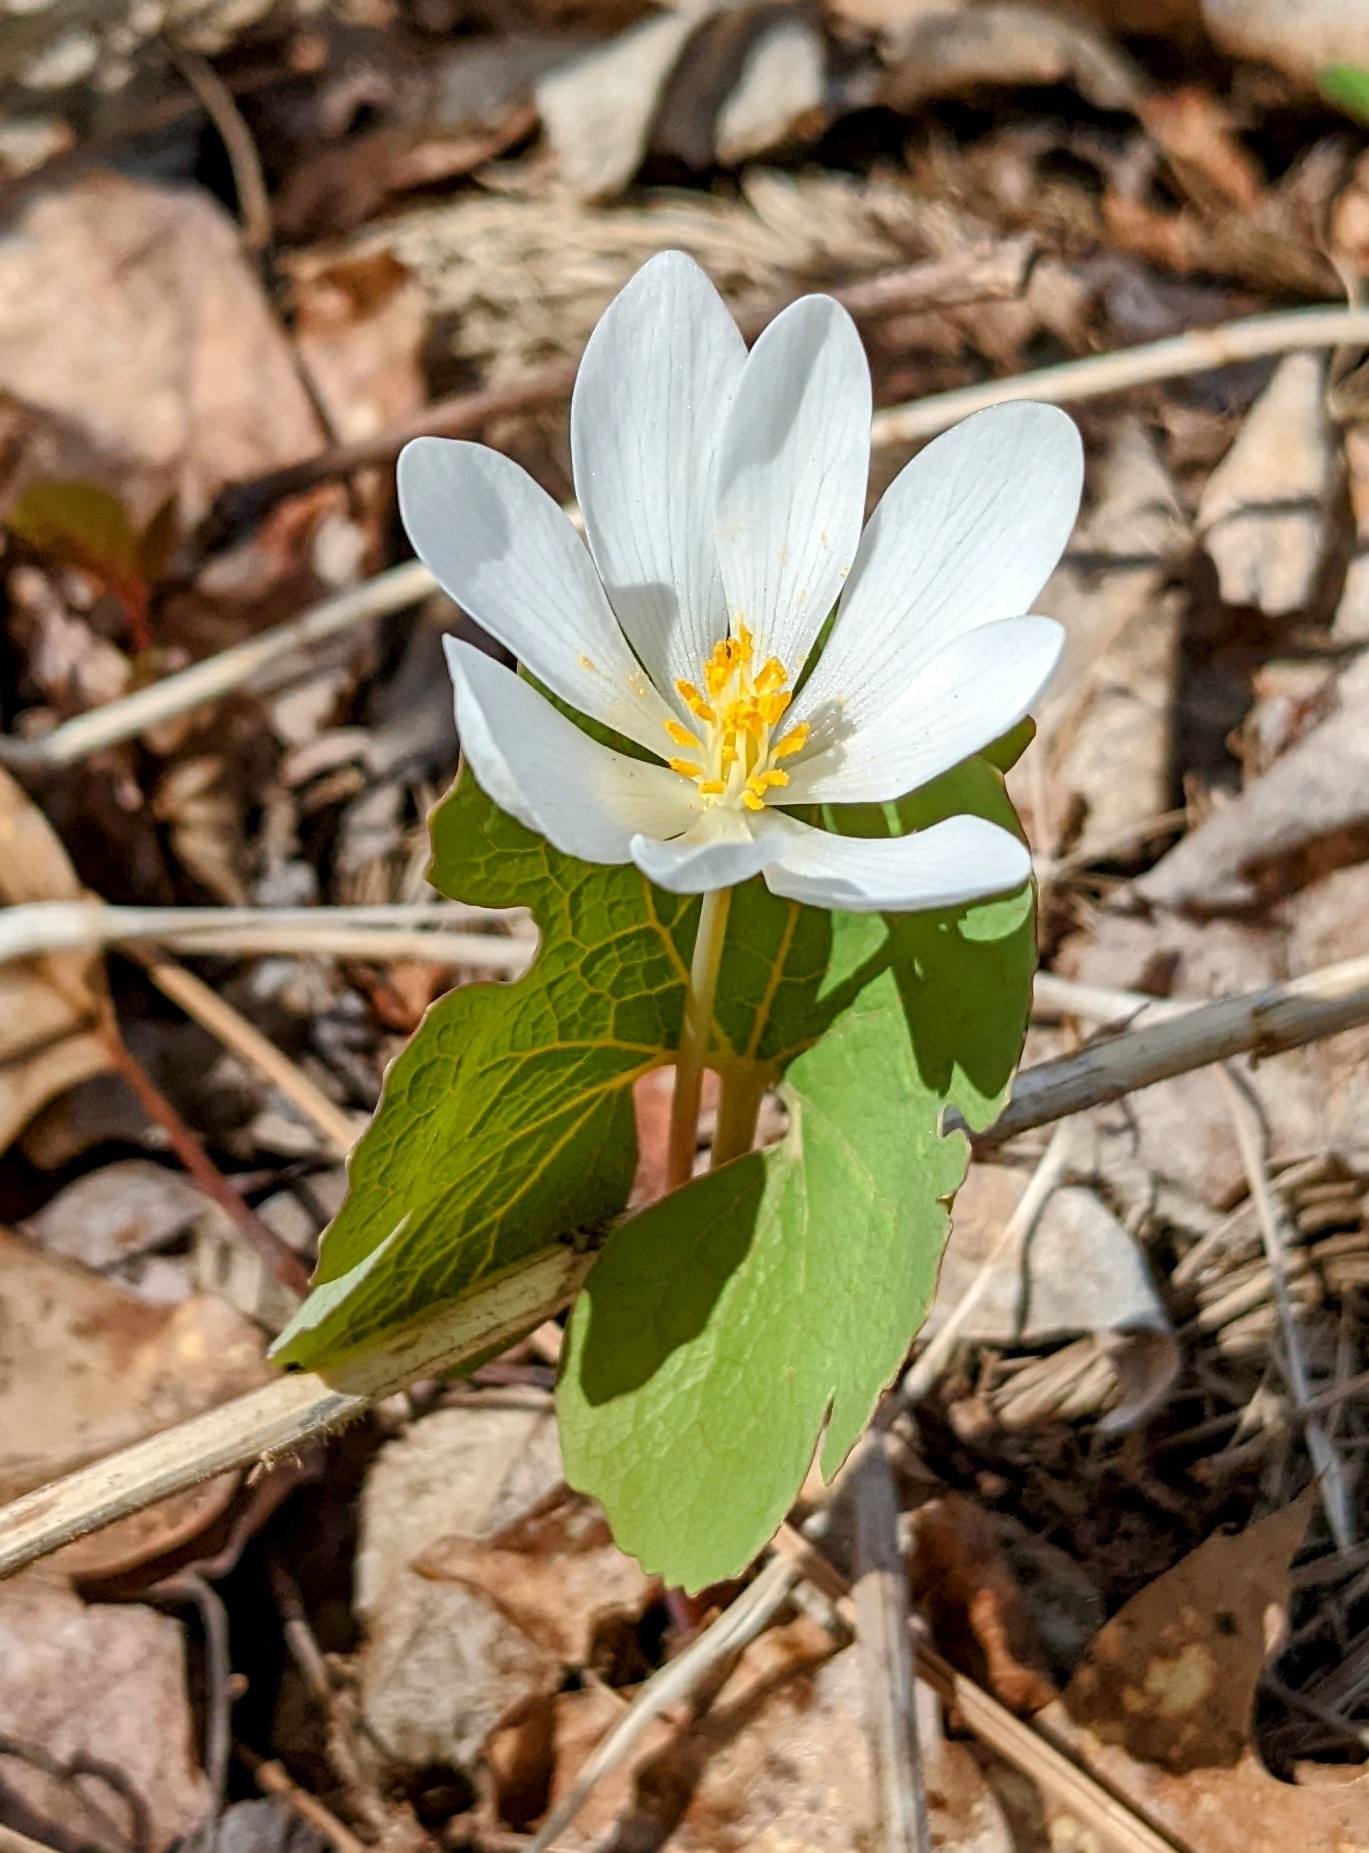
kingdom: Plantae
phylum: Tracheophyta
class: Magnoliopsida
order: Ranunculales
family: Papaveraceae
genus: Sanguinaria
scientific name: Sanguinaria canadensis
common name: Bloodroot
